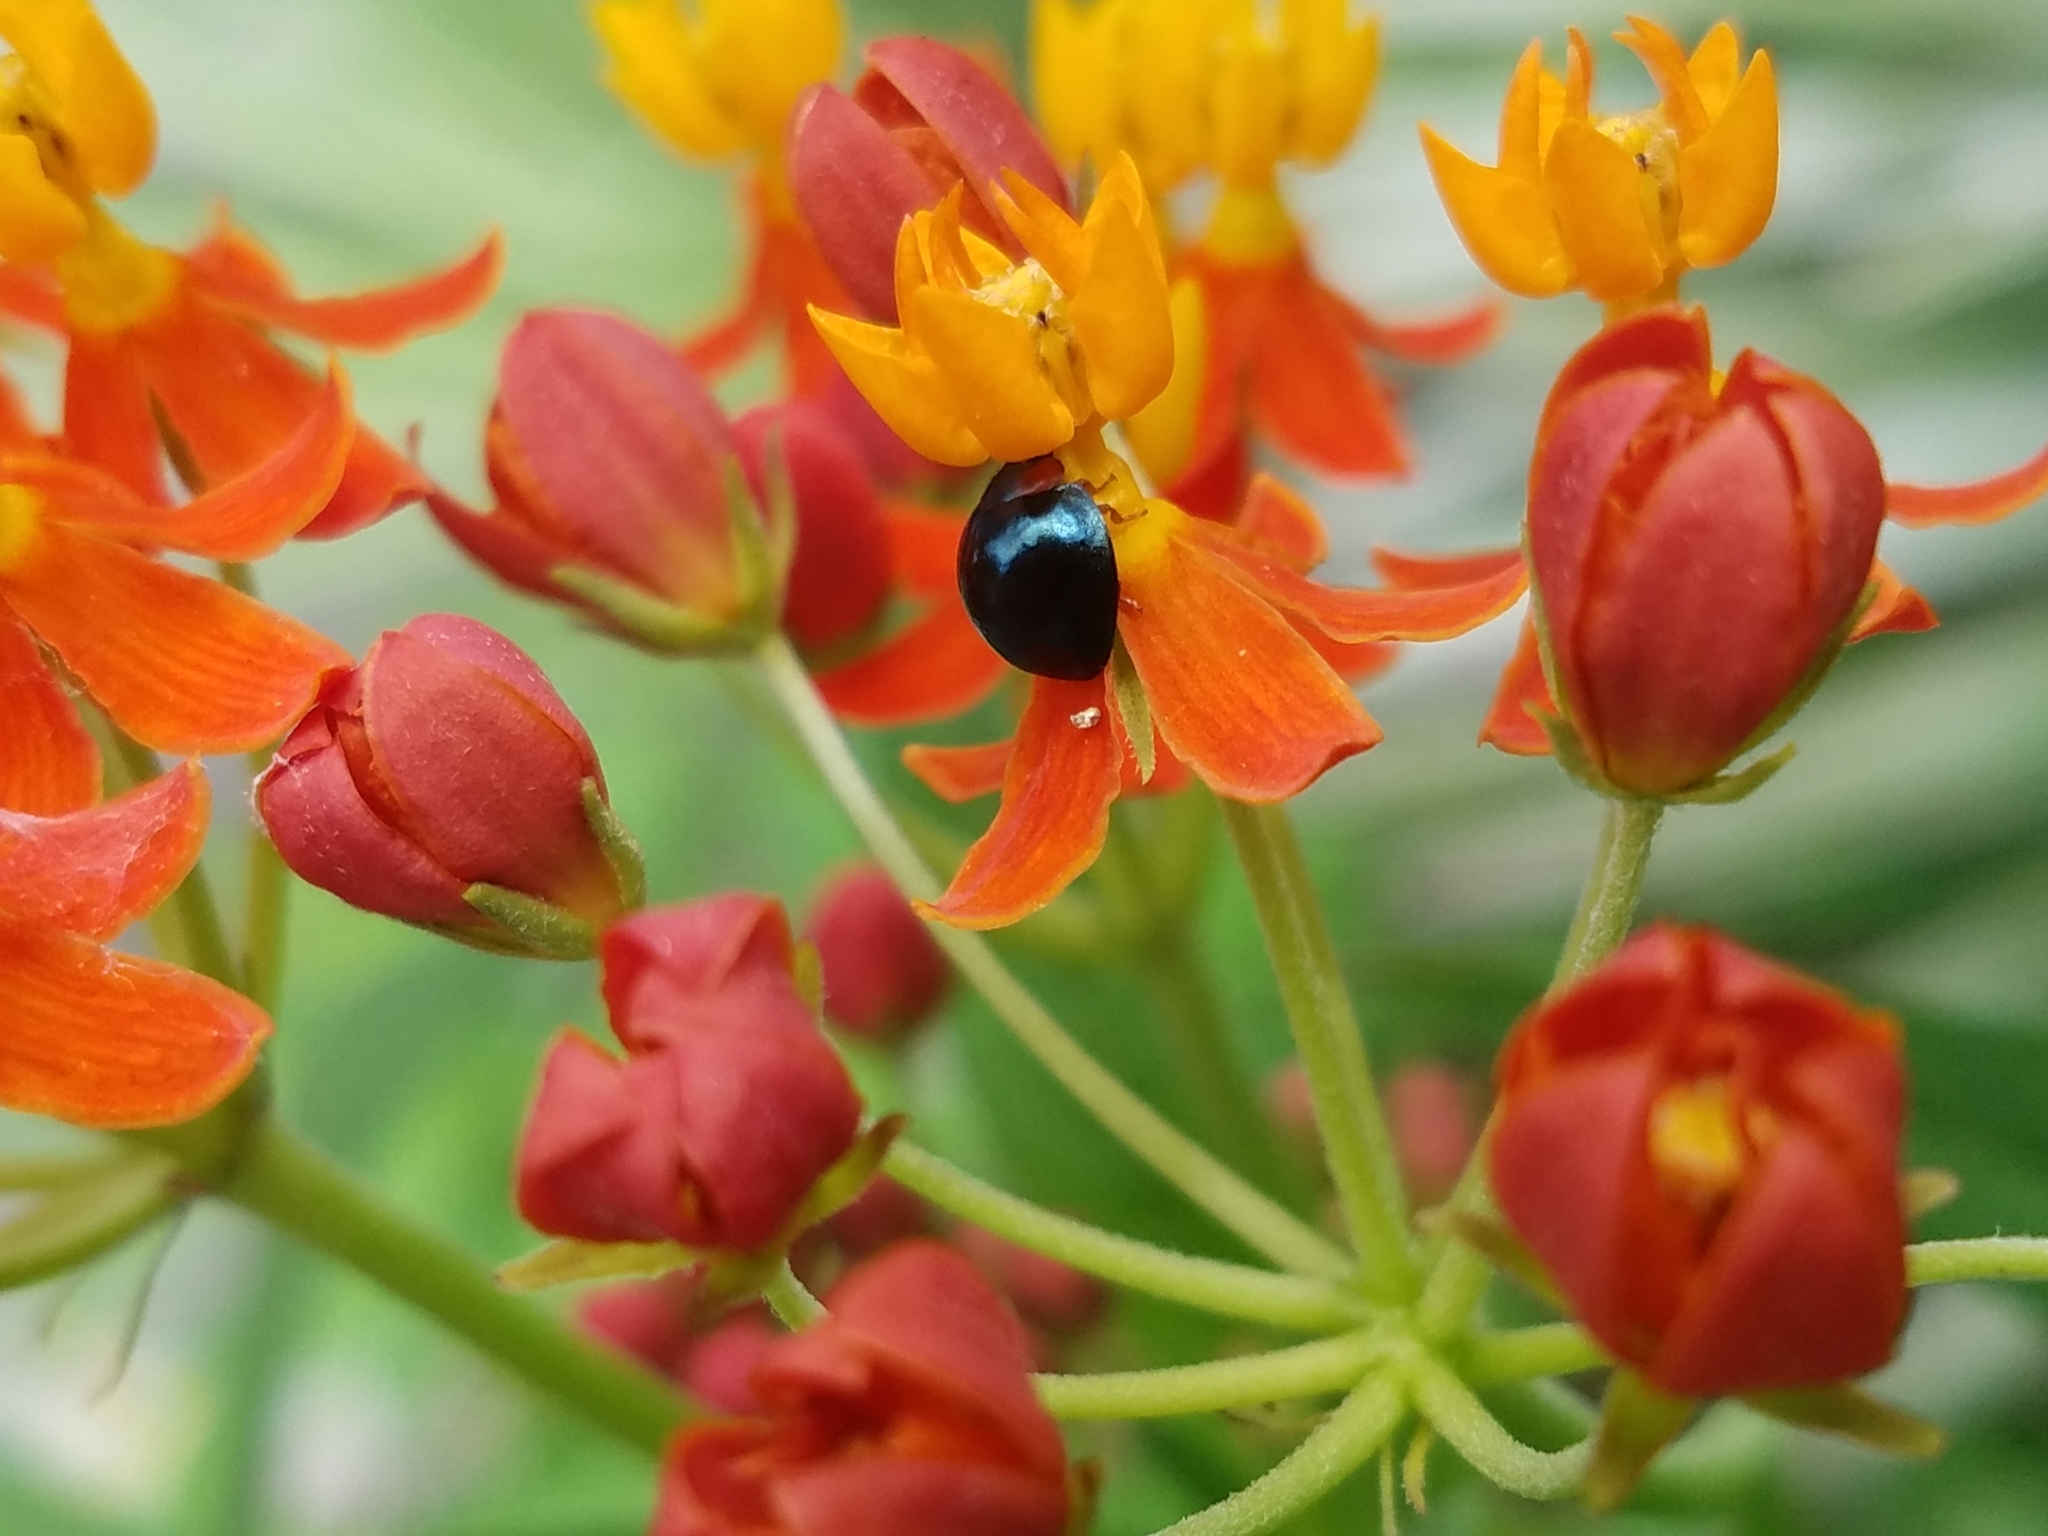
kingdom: Animalia
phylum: Arthropoda
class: Insecta
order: Coleoptera
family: Coccinellidae
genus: Curinus
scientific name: Curinus coeruleus
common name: Ladybird beetle
